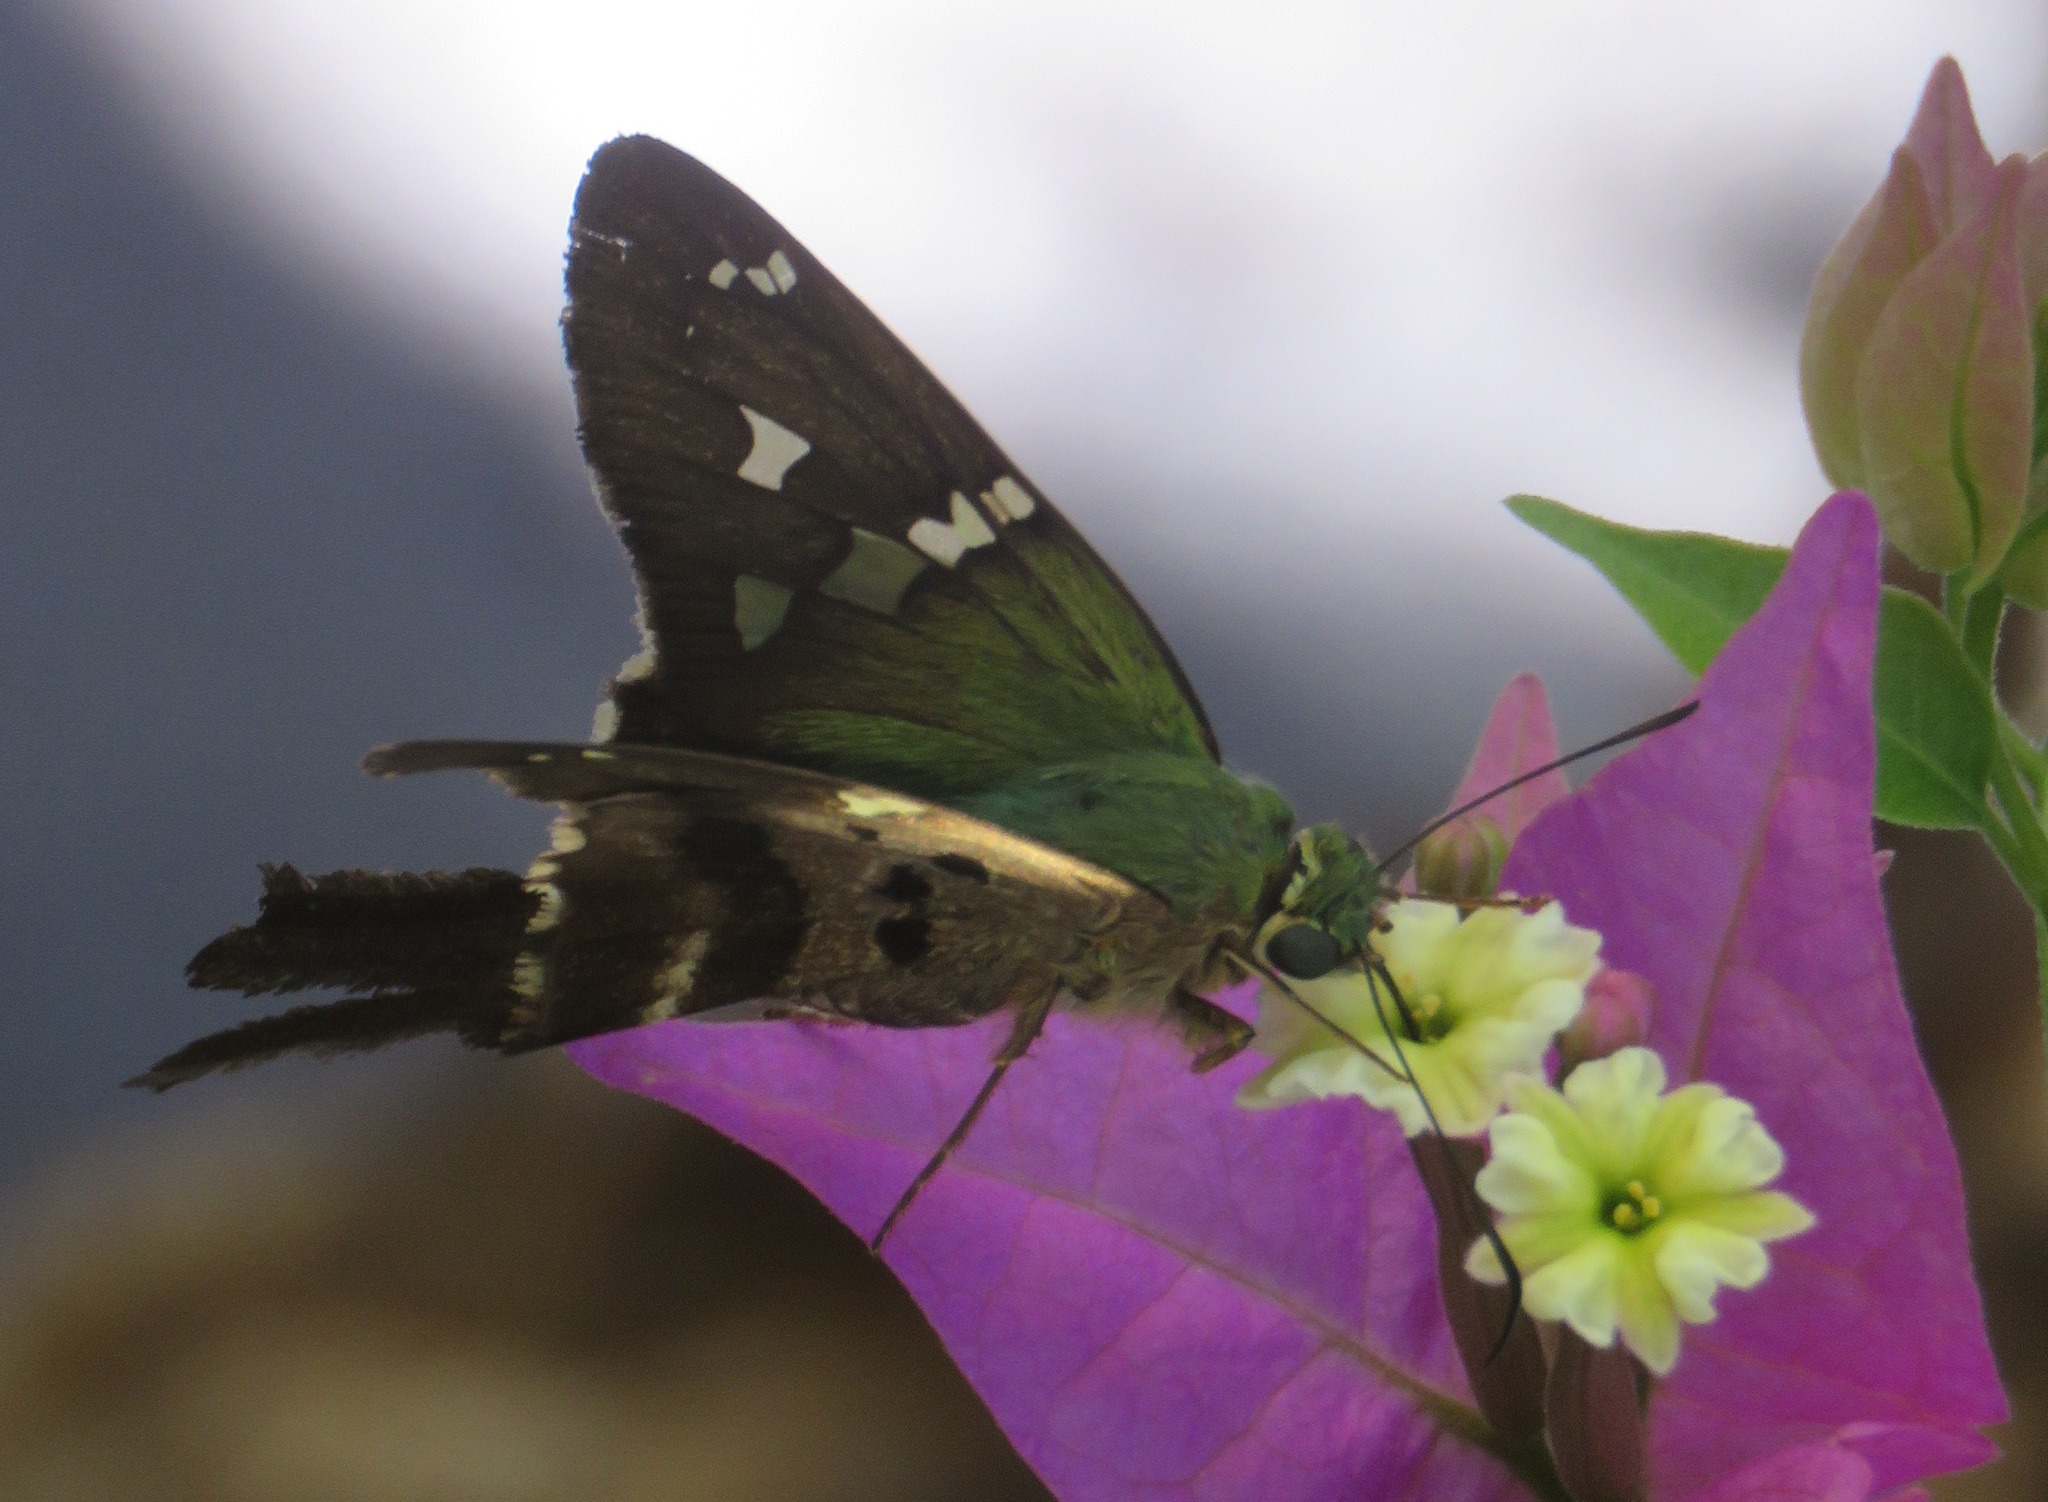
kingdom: Animalia
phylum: Arthropoda
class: Insecta
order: Lepidoptera
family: Hesperiidae
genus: Urbanus
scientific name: Urbanus esmeraldus
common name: Esmeralda longtail
